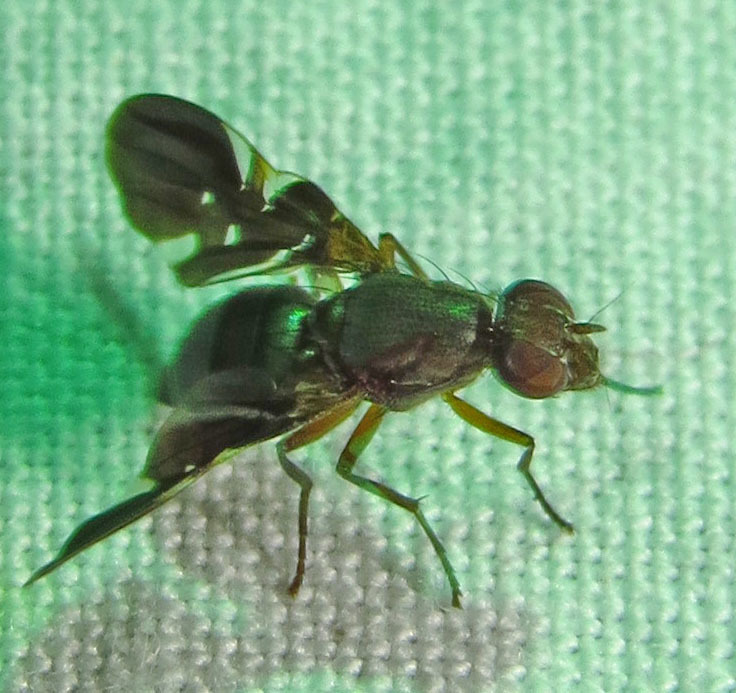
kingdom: Animalia
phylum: Arthropoda
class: Insecta
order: Diptera
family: Ulidiidae
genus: Delphinia
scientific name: Delphinia picta
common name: Common picture-winged fly
